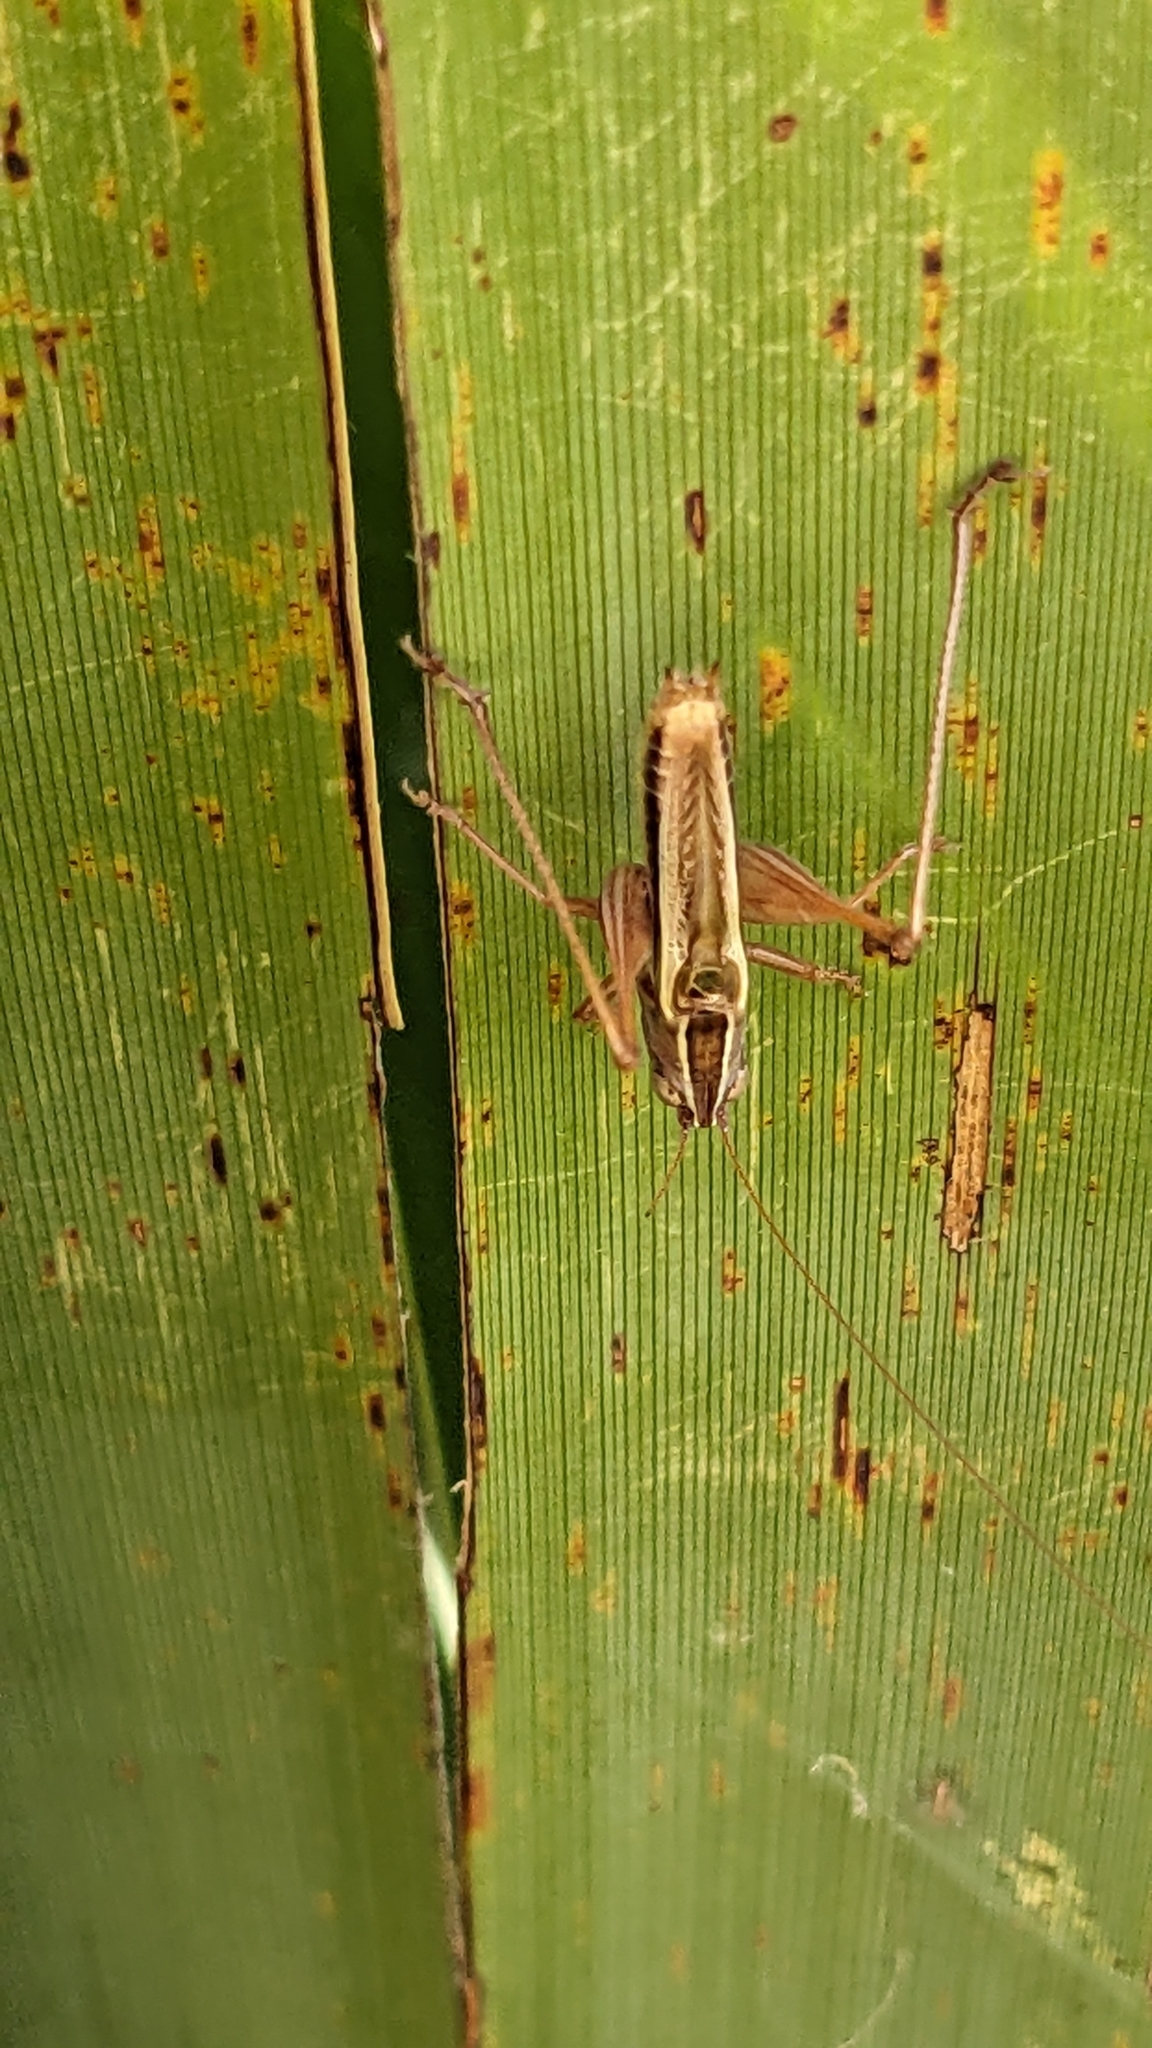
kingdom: Animalia
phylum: Arthropoda
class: Insecta
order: Orthoptera
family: Tettigoniidae
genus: Conocephalus
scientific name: Conocephalus albescens
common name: Whitish meadow katydid
